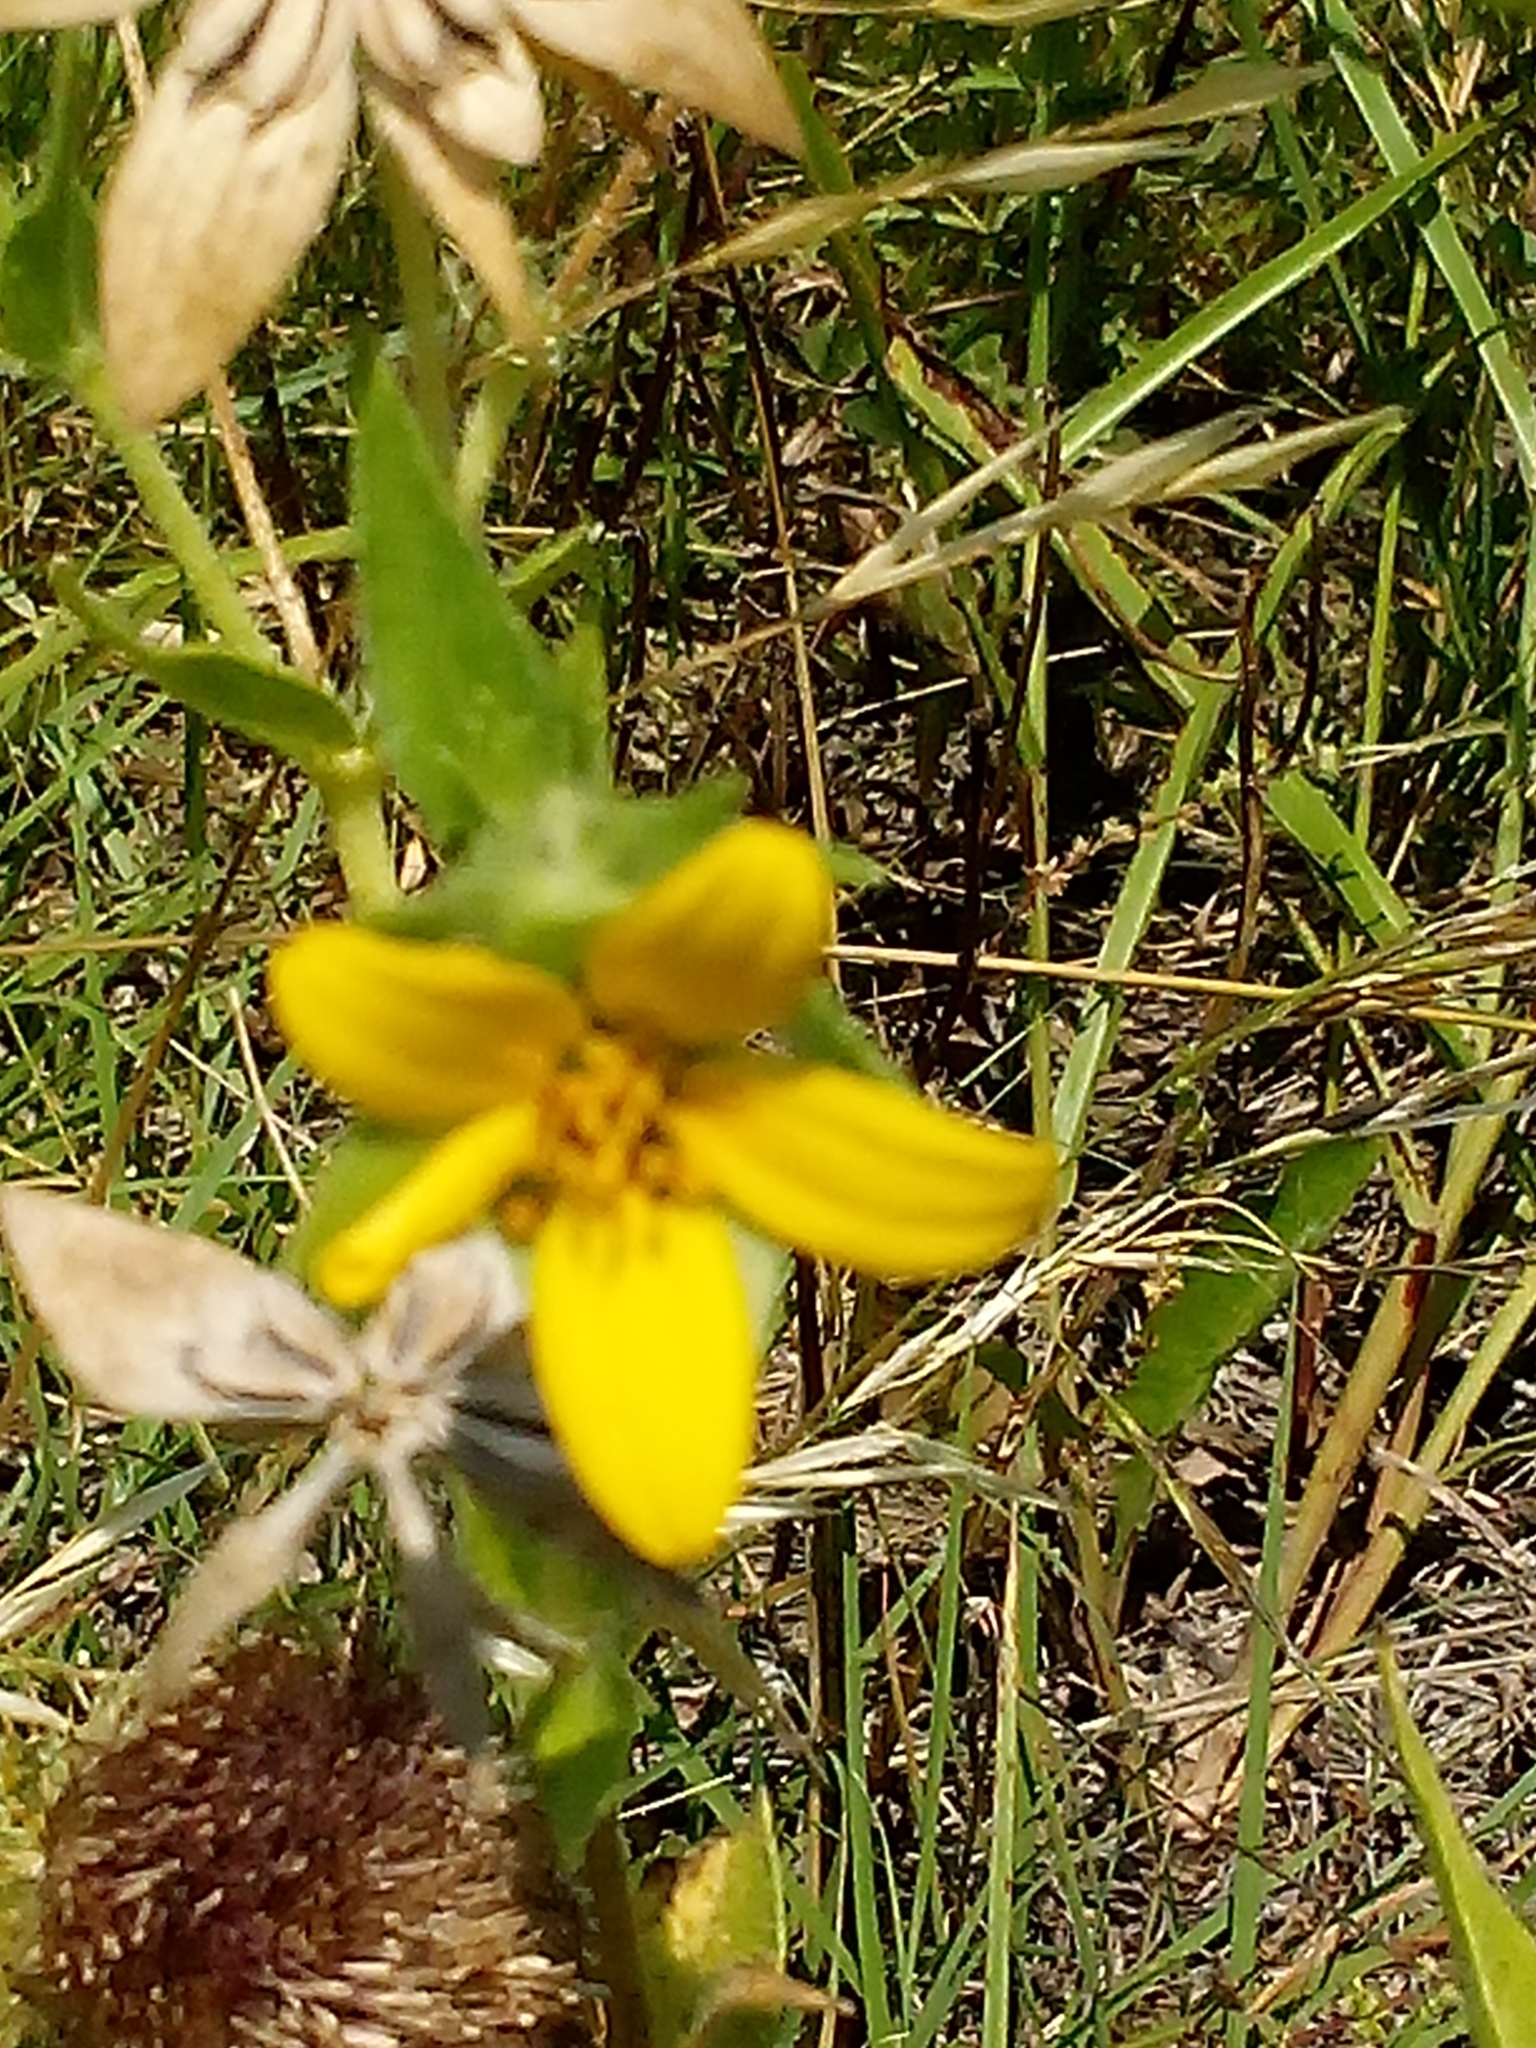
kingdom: Plantae
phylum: Tracheophyta
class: Magnoliopsida
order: Asterales
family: Asteraceae
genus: Lindheimera
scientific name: Lindheimera texana
